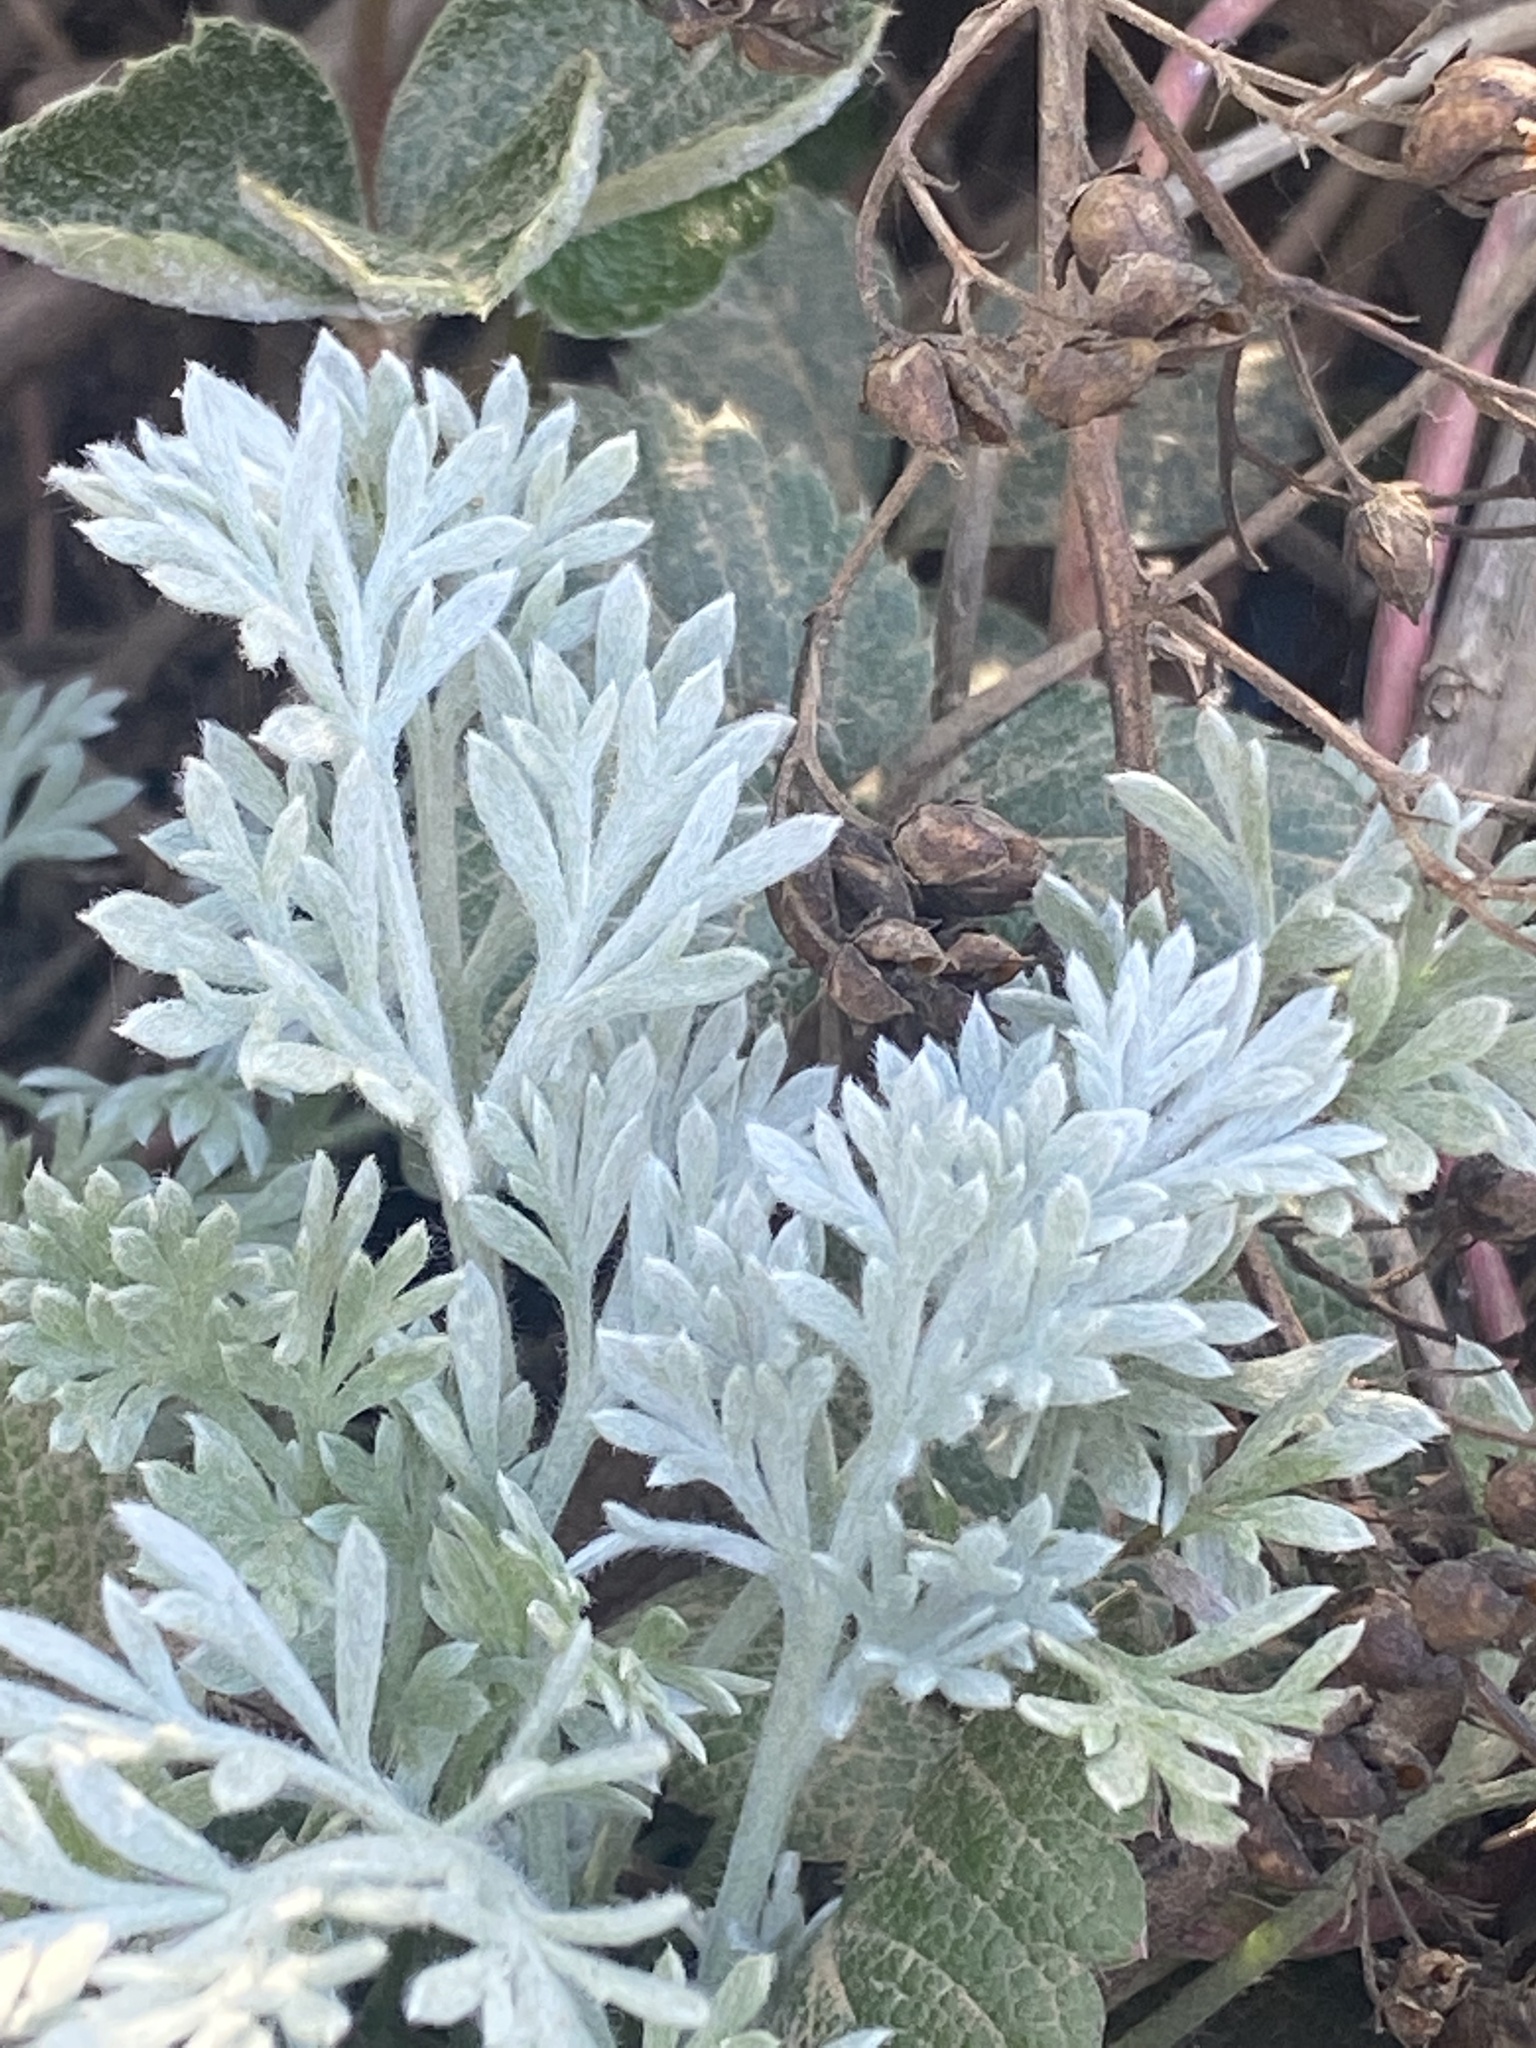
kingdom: Plantae
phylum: Tracheophyta
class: Magnoliopsida
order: Asterales
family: Asteraceae
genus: Artemisia
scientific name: Artemisia pycnocephala
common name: Coastal sagewort
